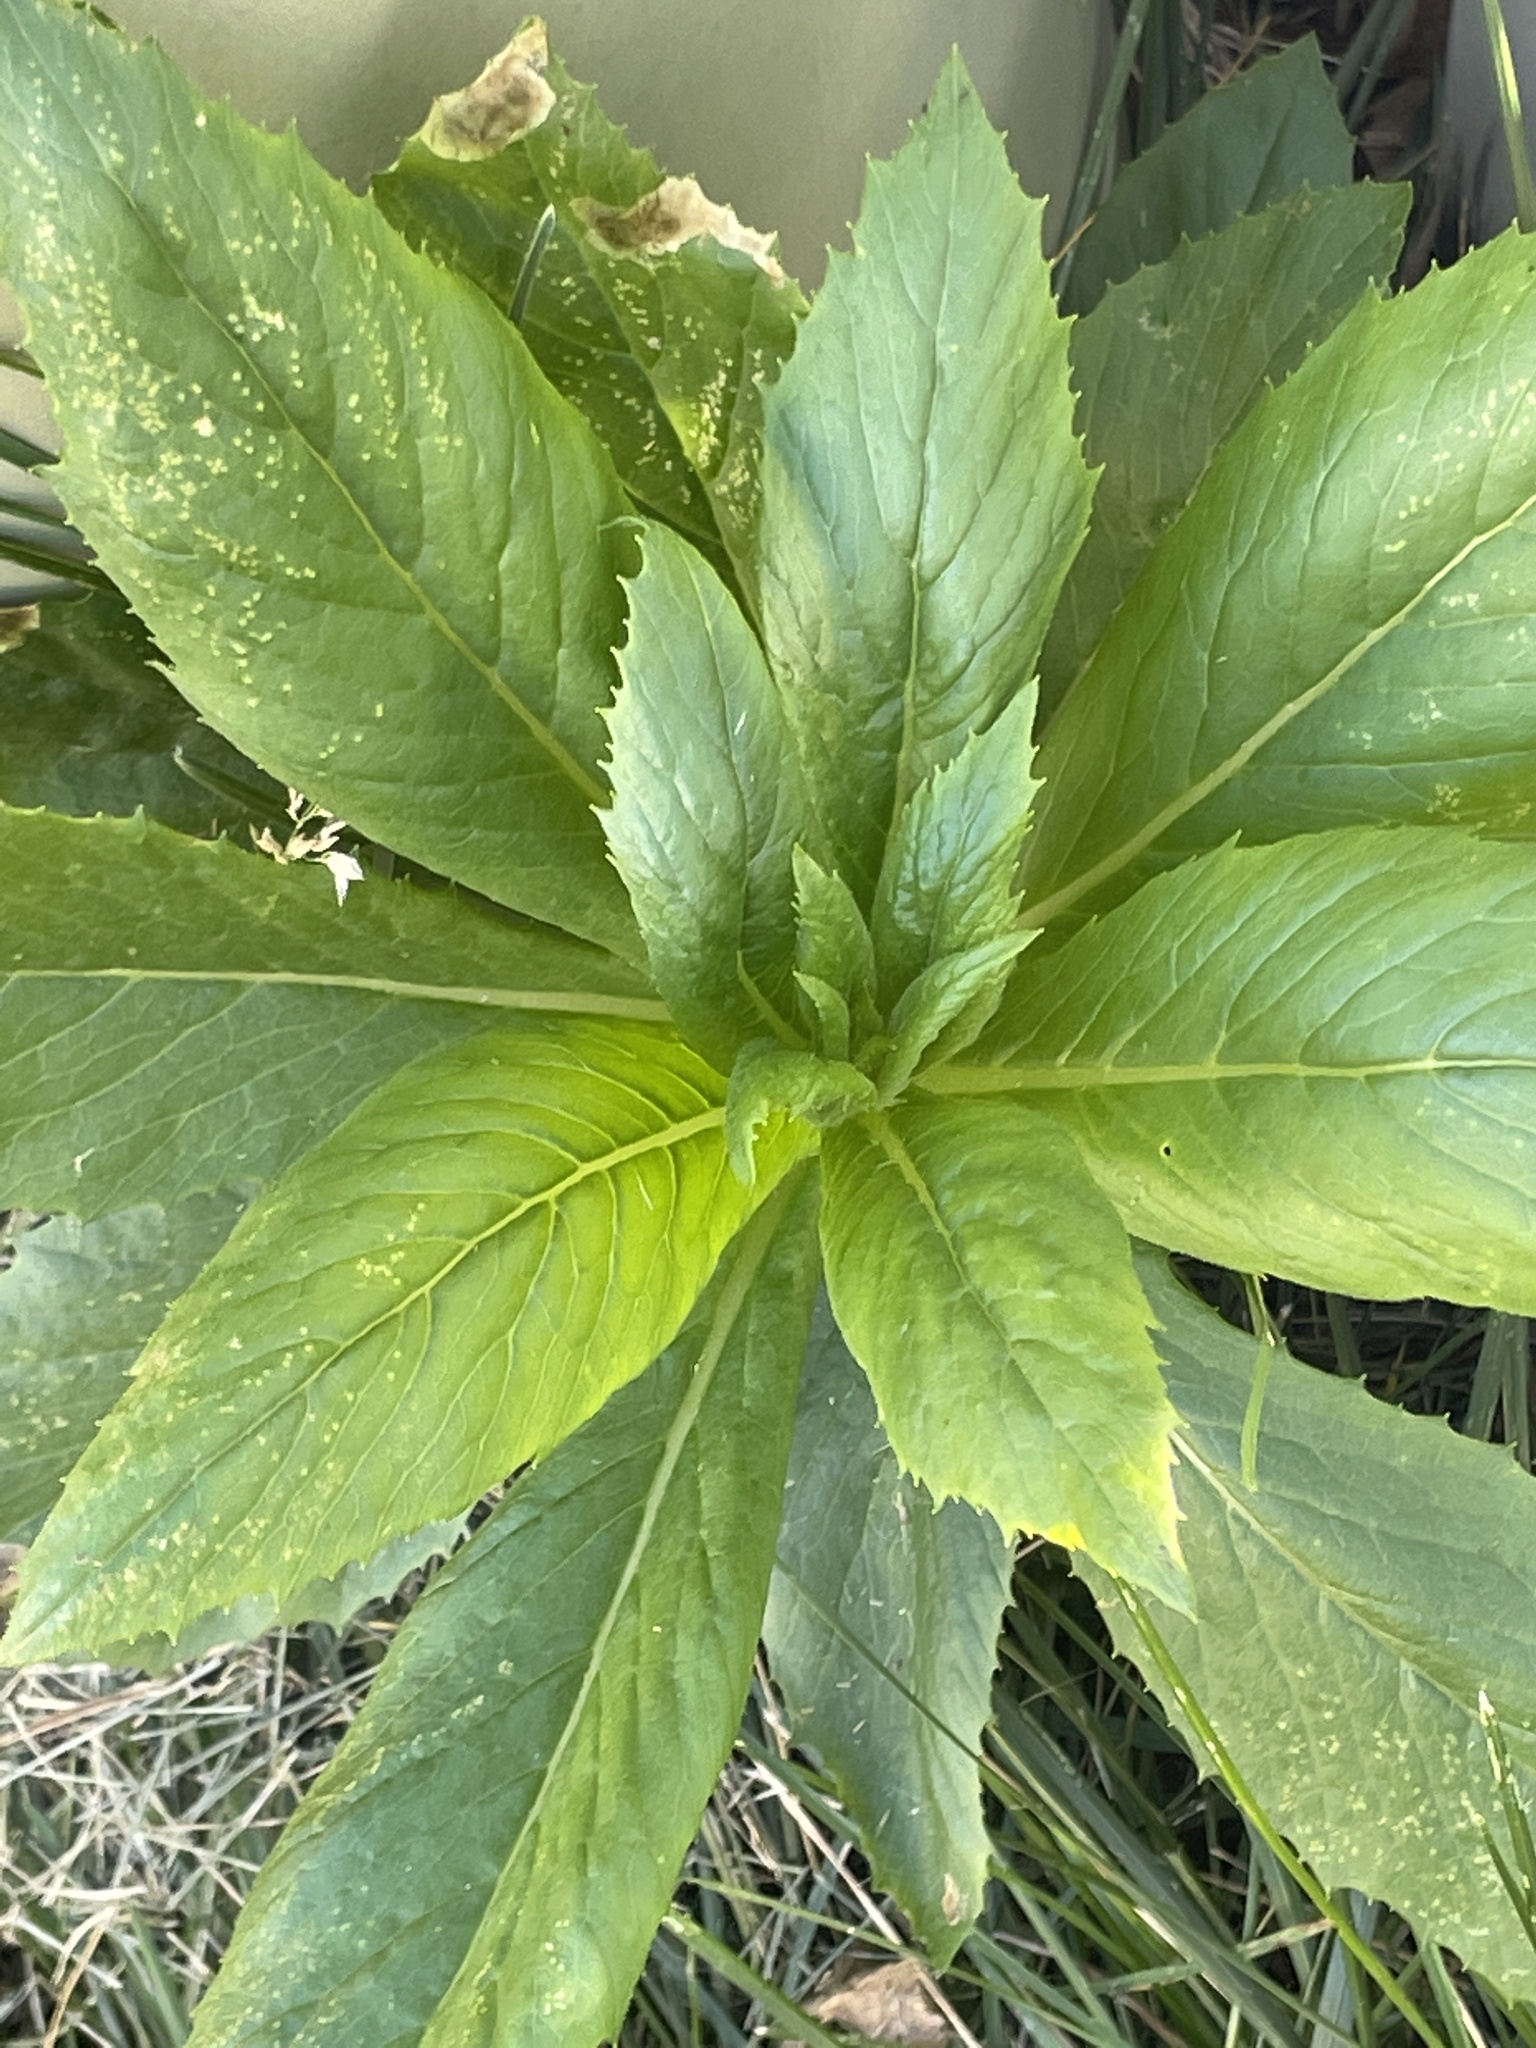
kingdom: Plantae
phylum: Tracheophyta
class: Magnoliopsida
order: Asterales
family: Asteraceae
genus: Erechtites
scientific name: Erechtites hieraciifolius
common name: American burnweed
